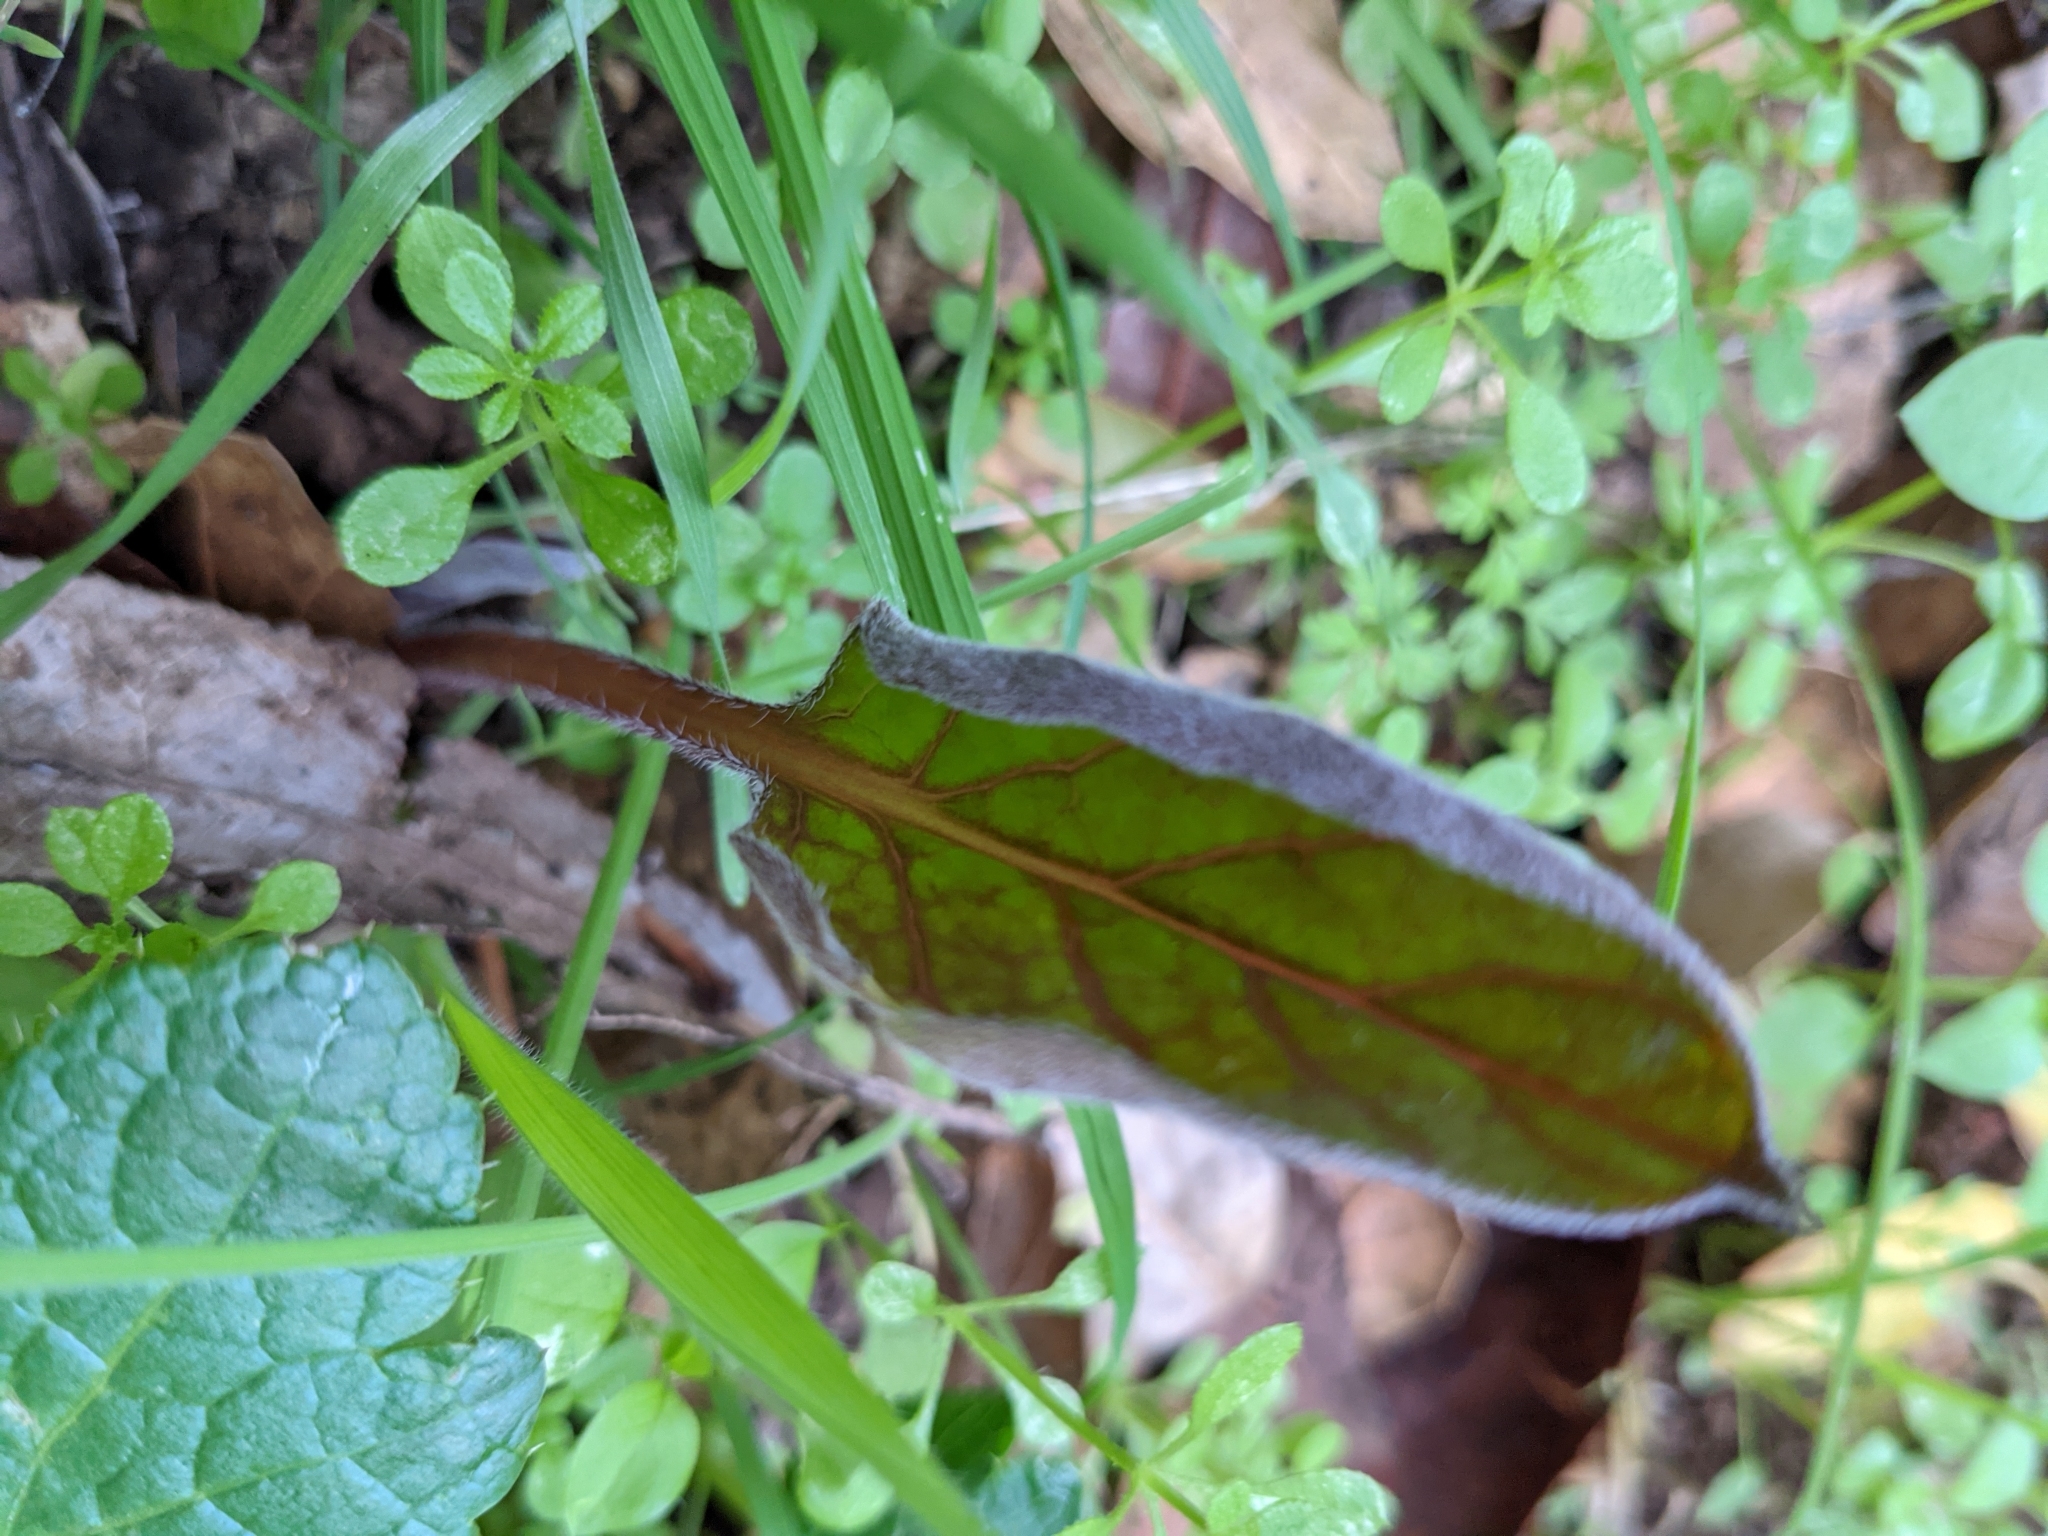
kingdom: Plantae
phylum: Tracheophyta
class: Magnoliopsida
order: Boraginales
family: Boraginaceae
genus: Adelinia
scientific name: Adelinia grande
